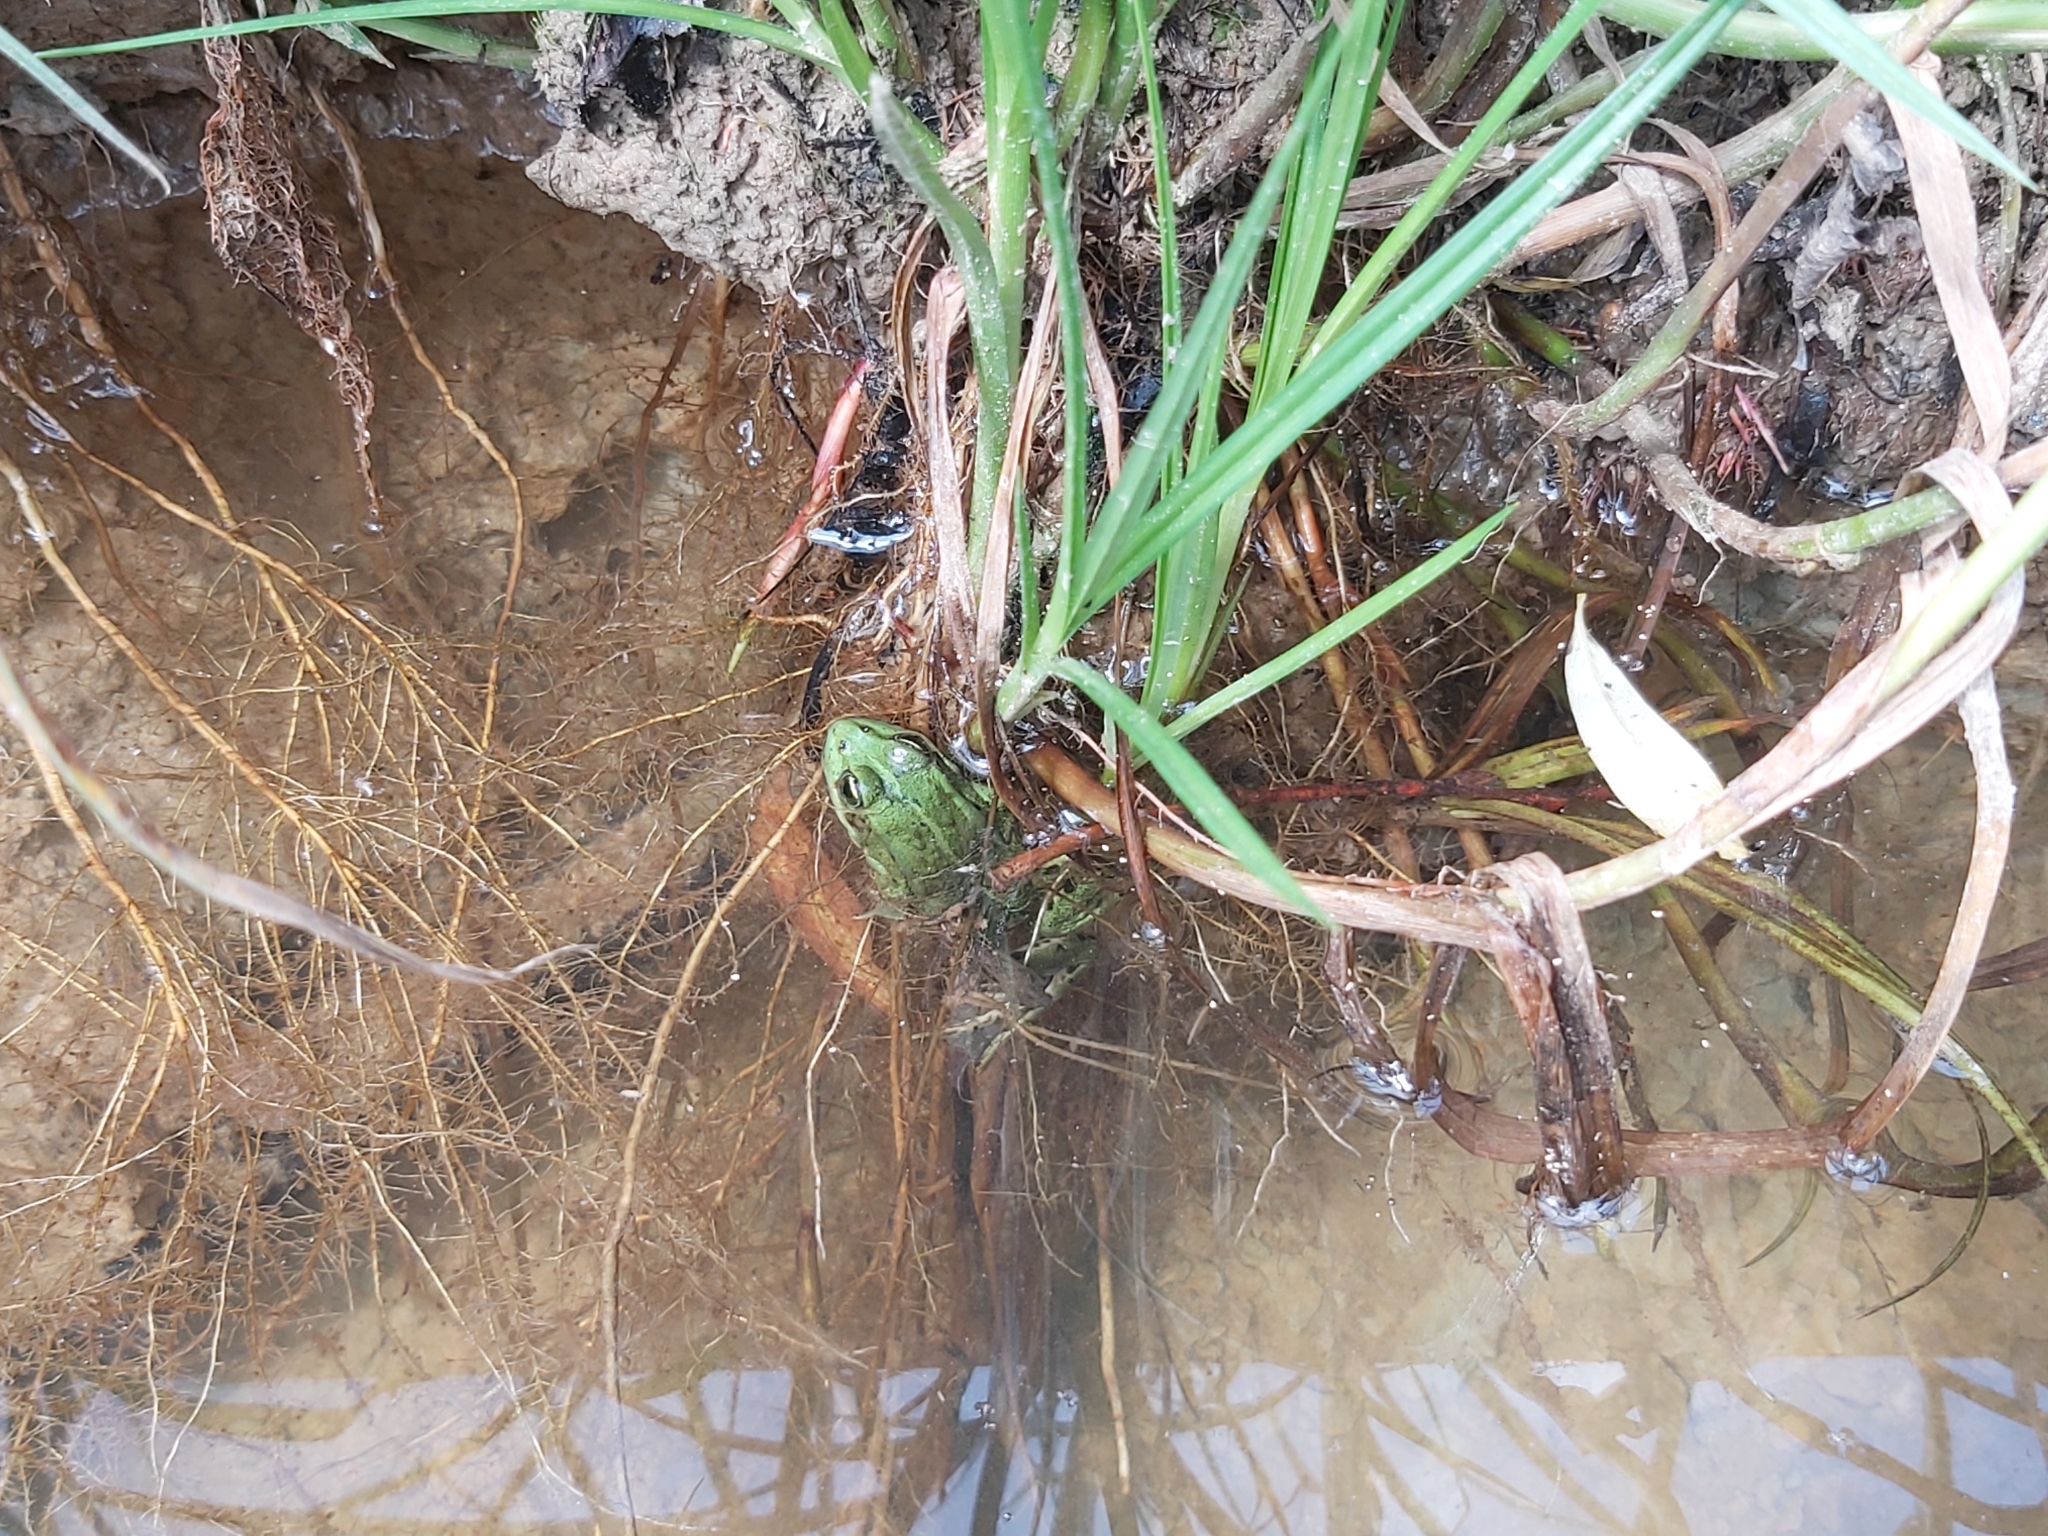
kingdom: Animalia
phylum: Chordata
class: Amphibia
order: Anura
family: Ranidae
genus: Pelophylax
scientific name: Pelophylax
